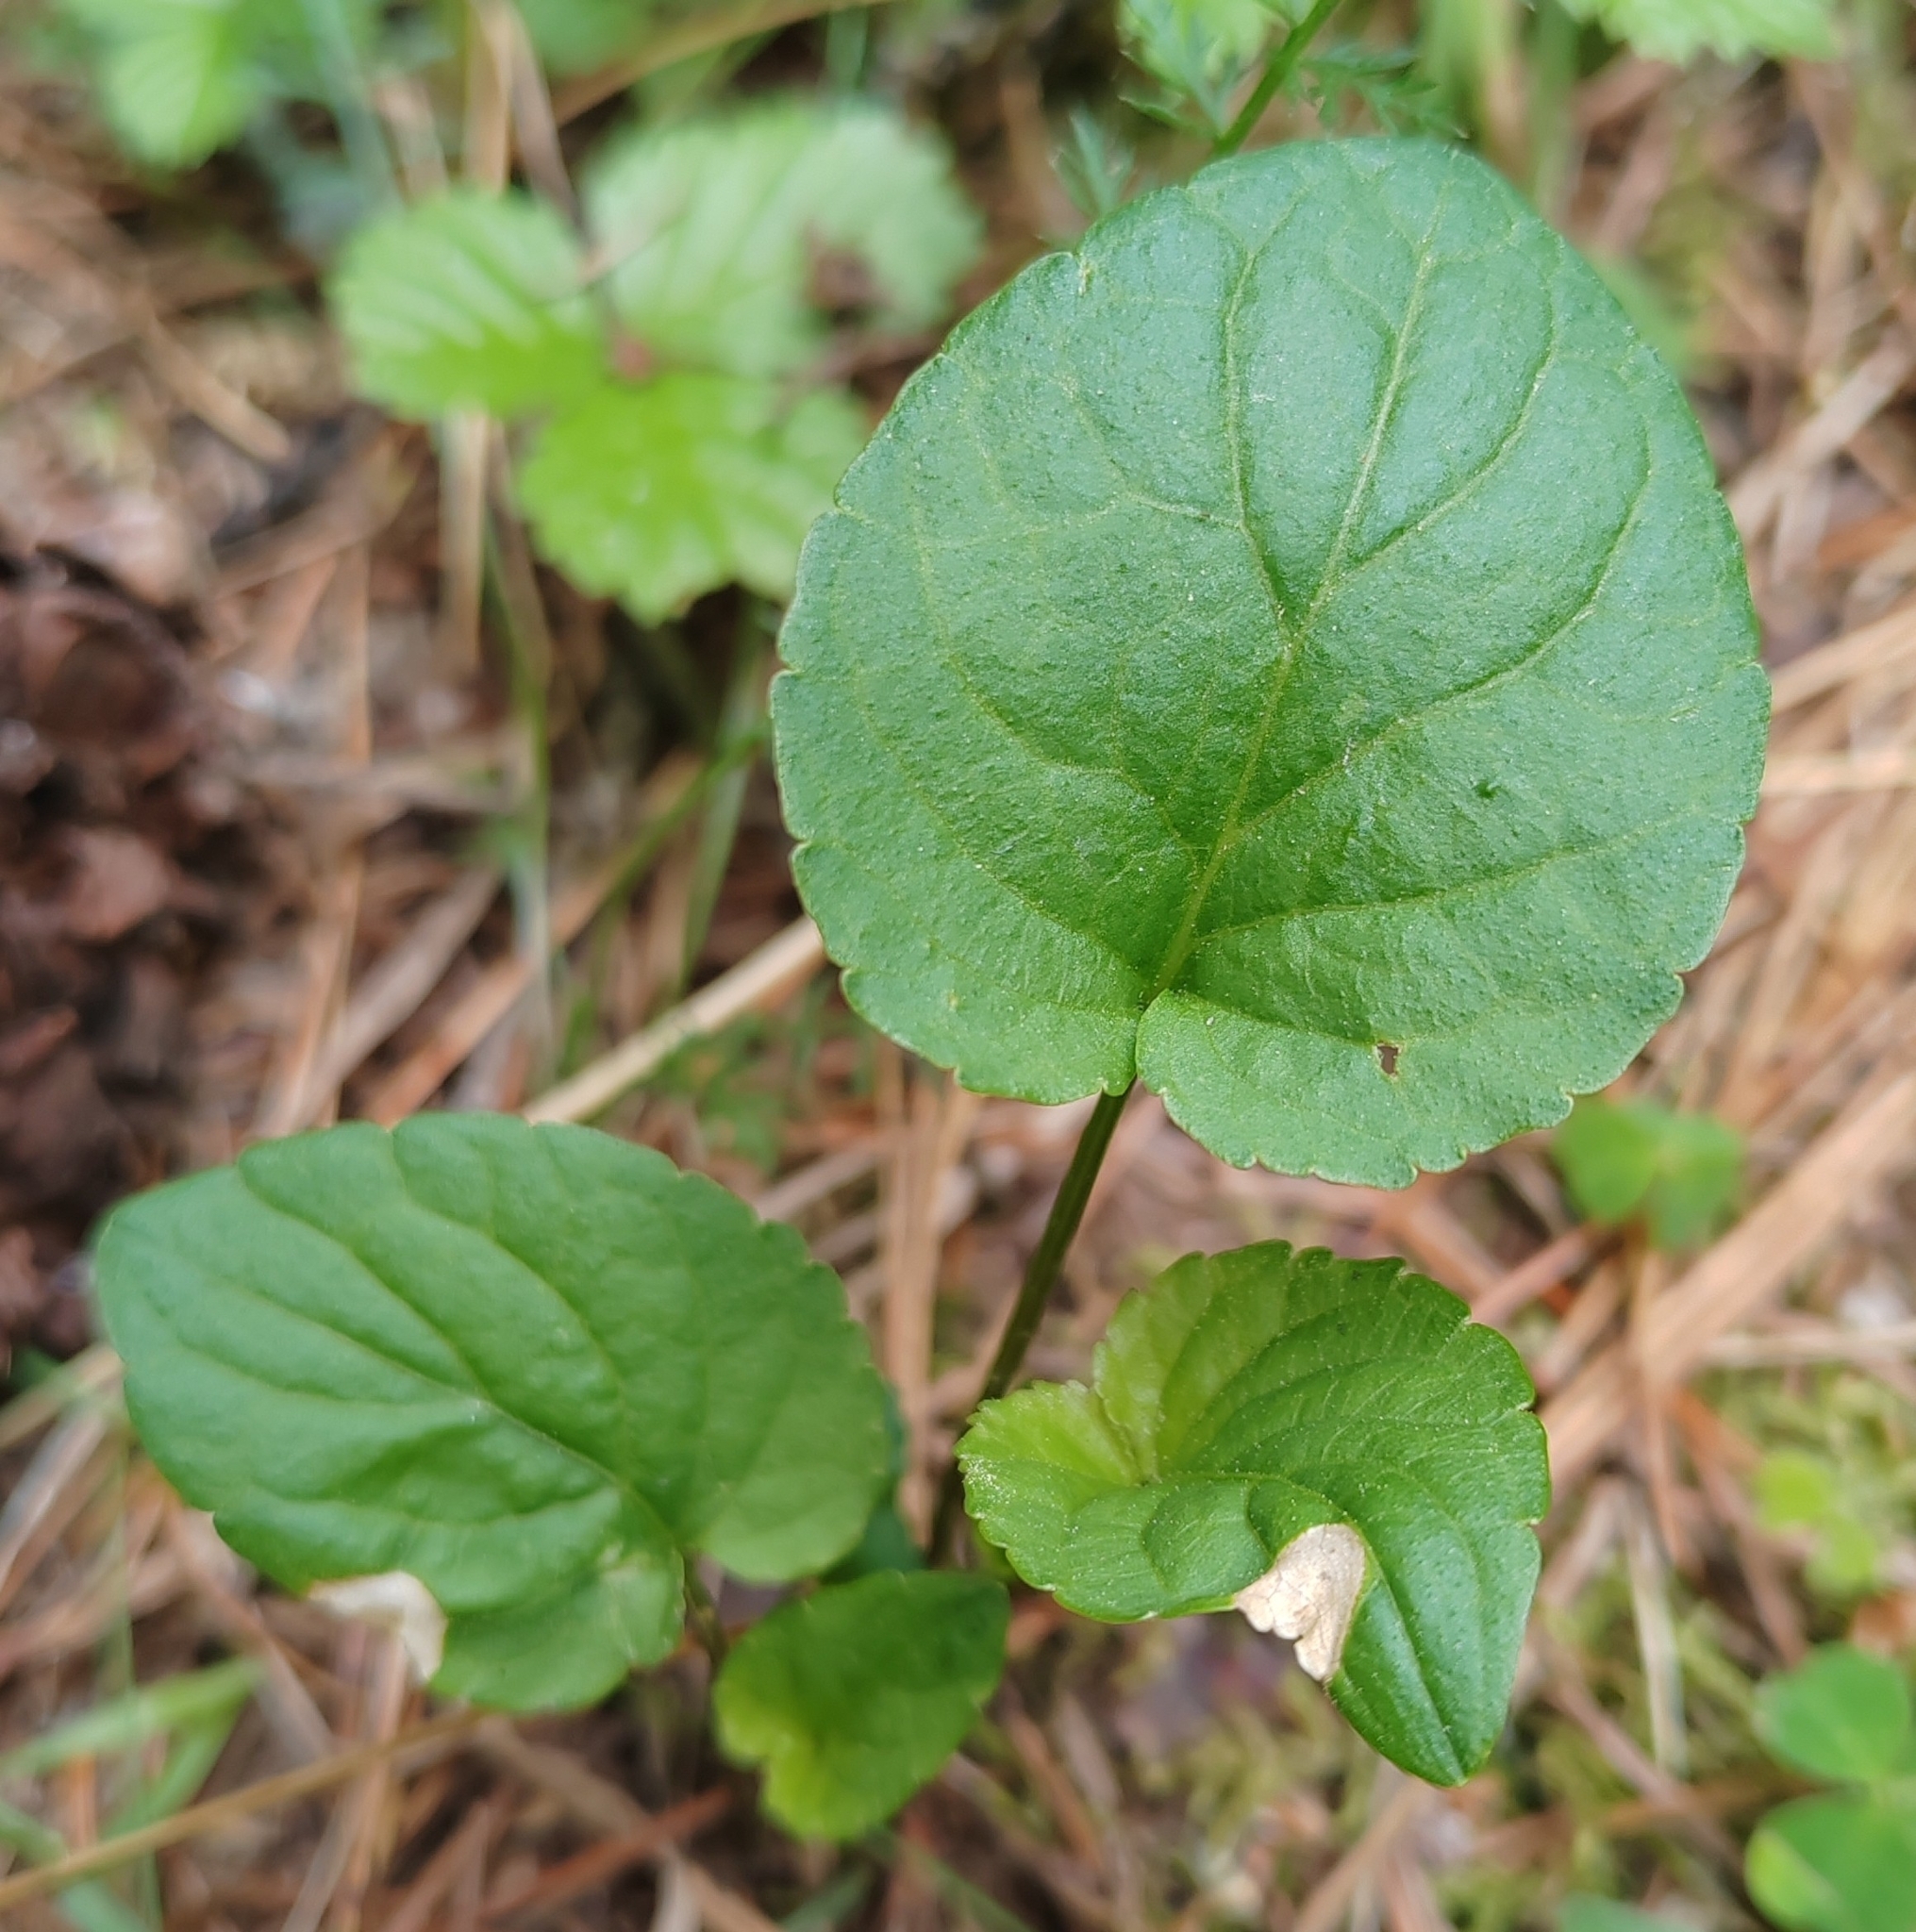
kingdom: Plantae
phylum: Tracheophyta
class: Magnoliopsida
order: Malpighiales
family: Violaceae
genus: Viola
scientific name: Viola selkirkii
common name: Selkirk's violet
